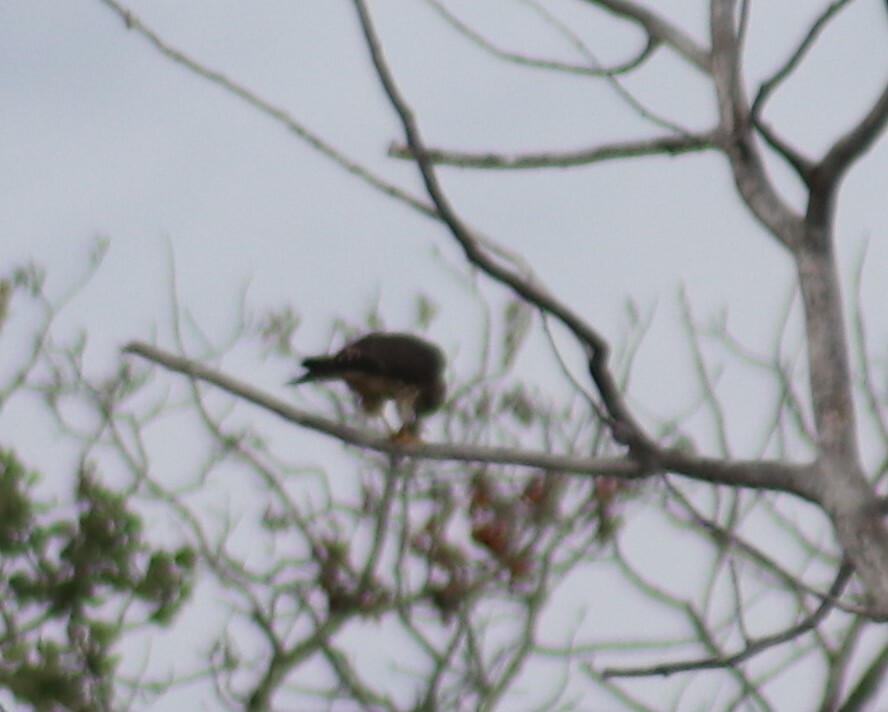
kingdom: Animalia
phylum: Chordata
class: Aves
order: Falconiformes
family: Falconidae
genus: Falco
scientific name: Falco columbarius
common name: Merlin
